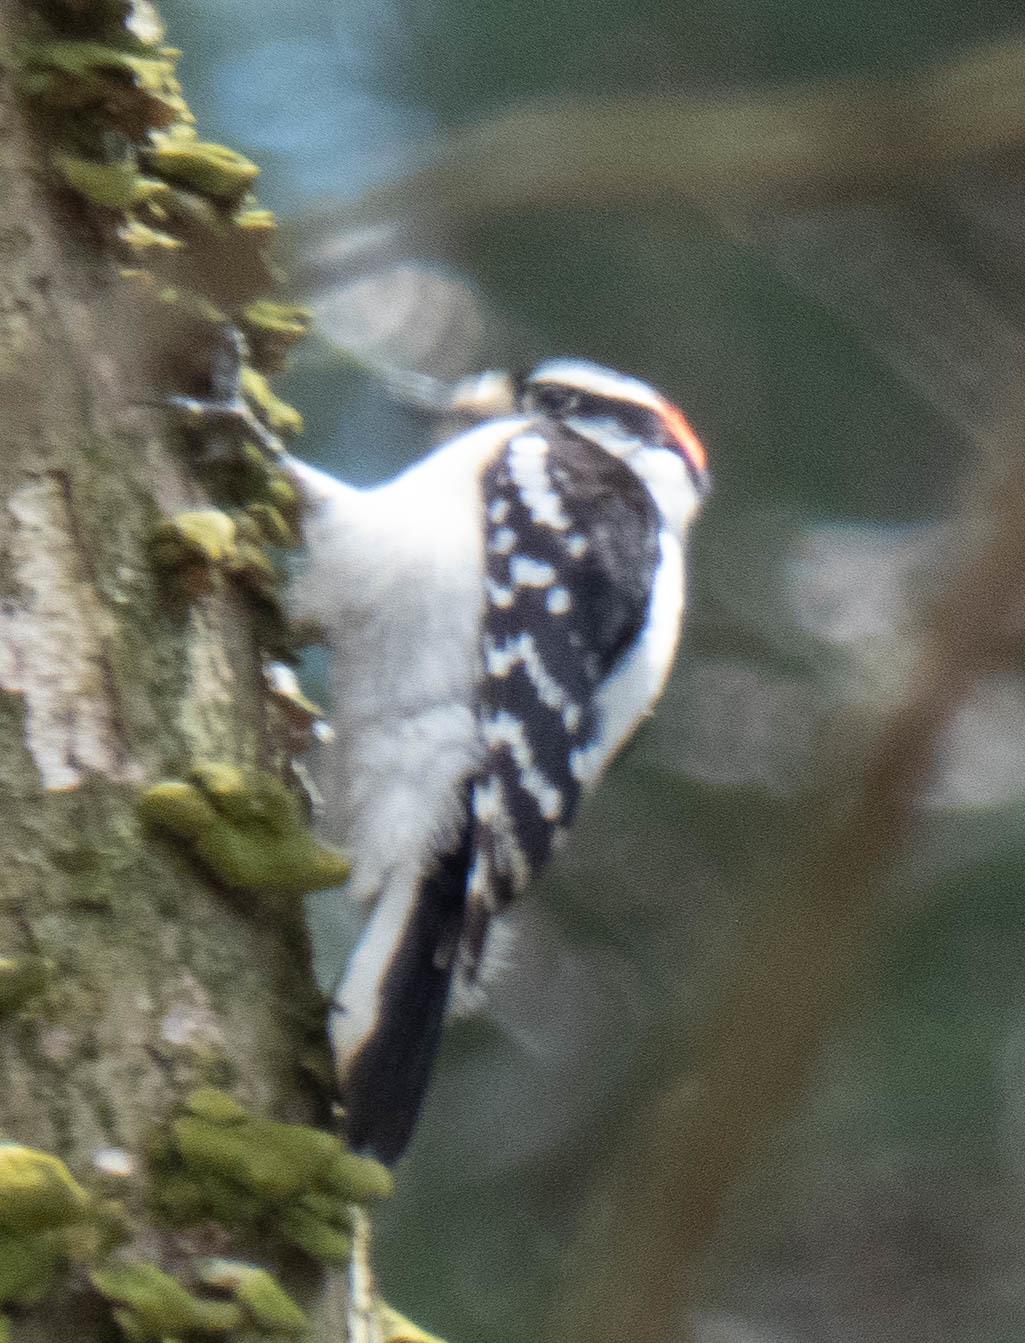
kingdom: Animalia
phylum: Chordata
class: Aves
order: Piciformes
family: Picidae
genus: Dryobates
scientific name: Dryobates pubescens
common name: Downy woodpecker
